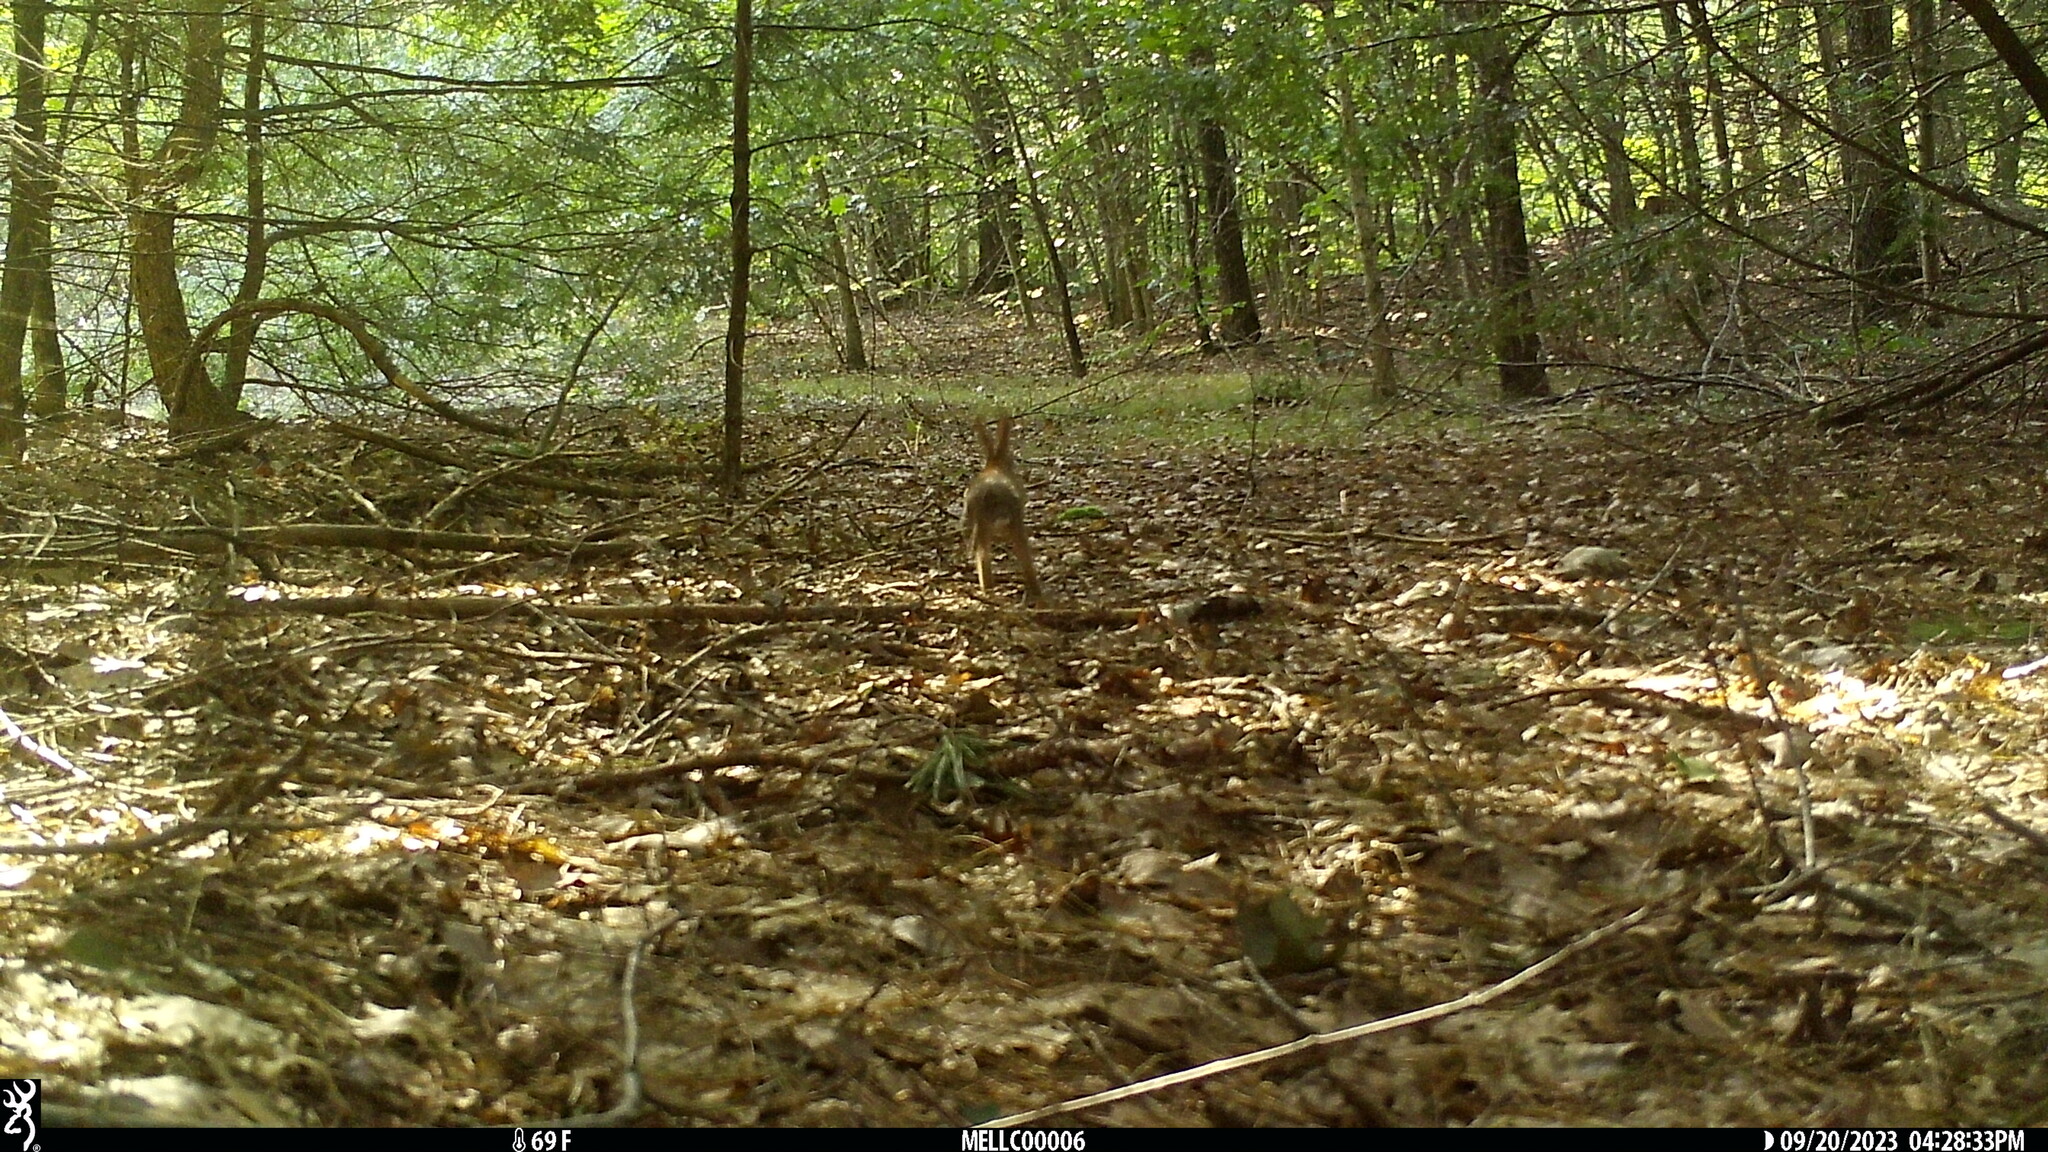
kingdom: Animalia
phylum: Chordata
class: Mammalia
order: Lagomorpha
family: Leporidae
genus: Sylvilagus
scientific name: Sylvilagus floridanus
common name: Eastern cottontail
